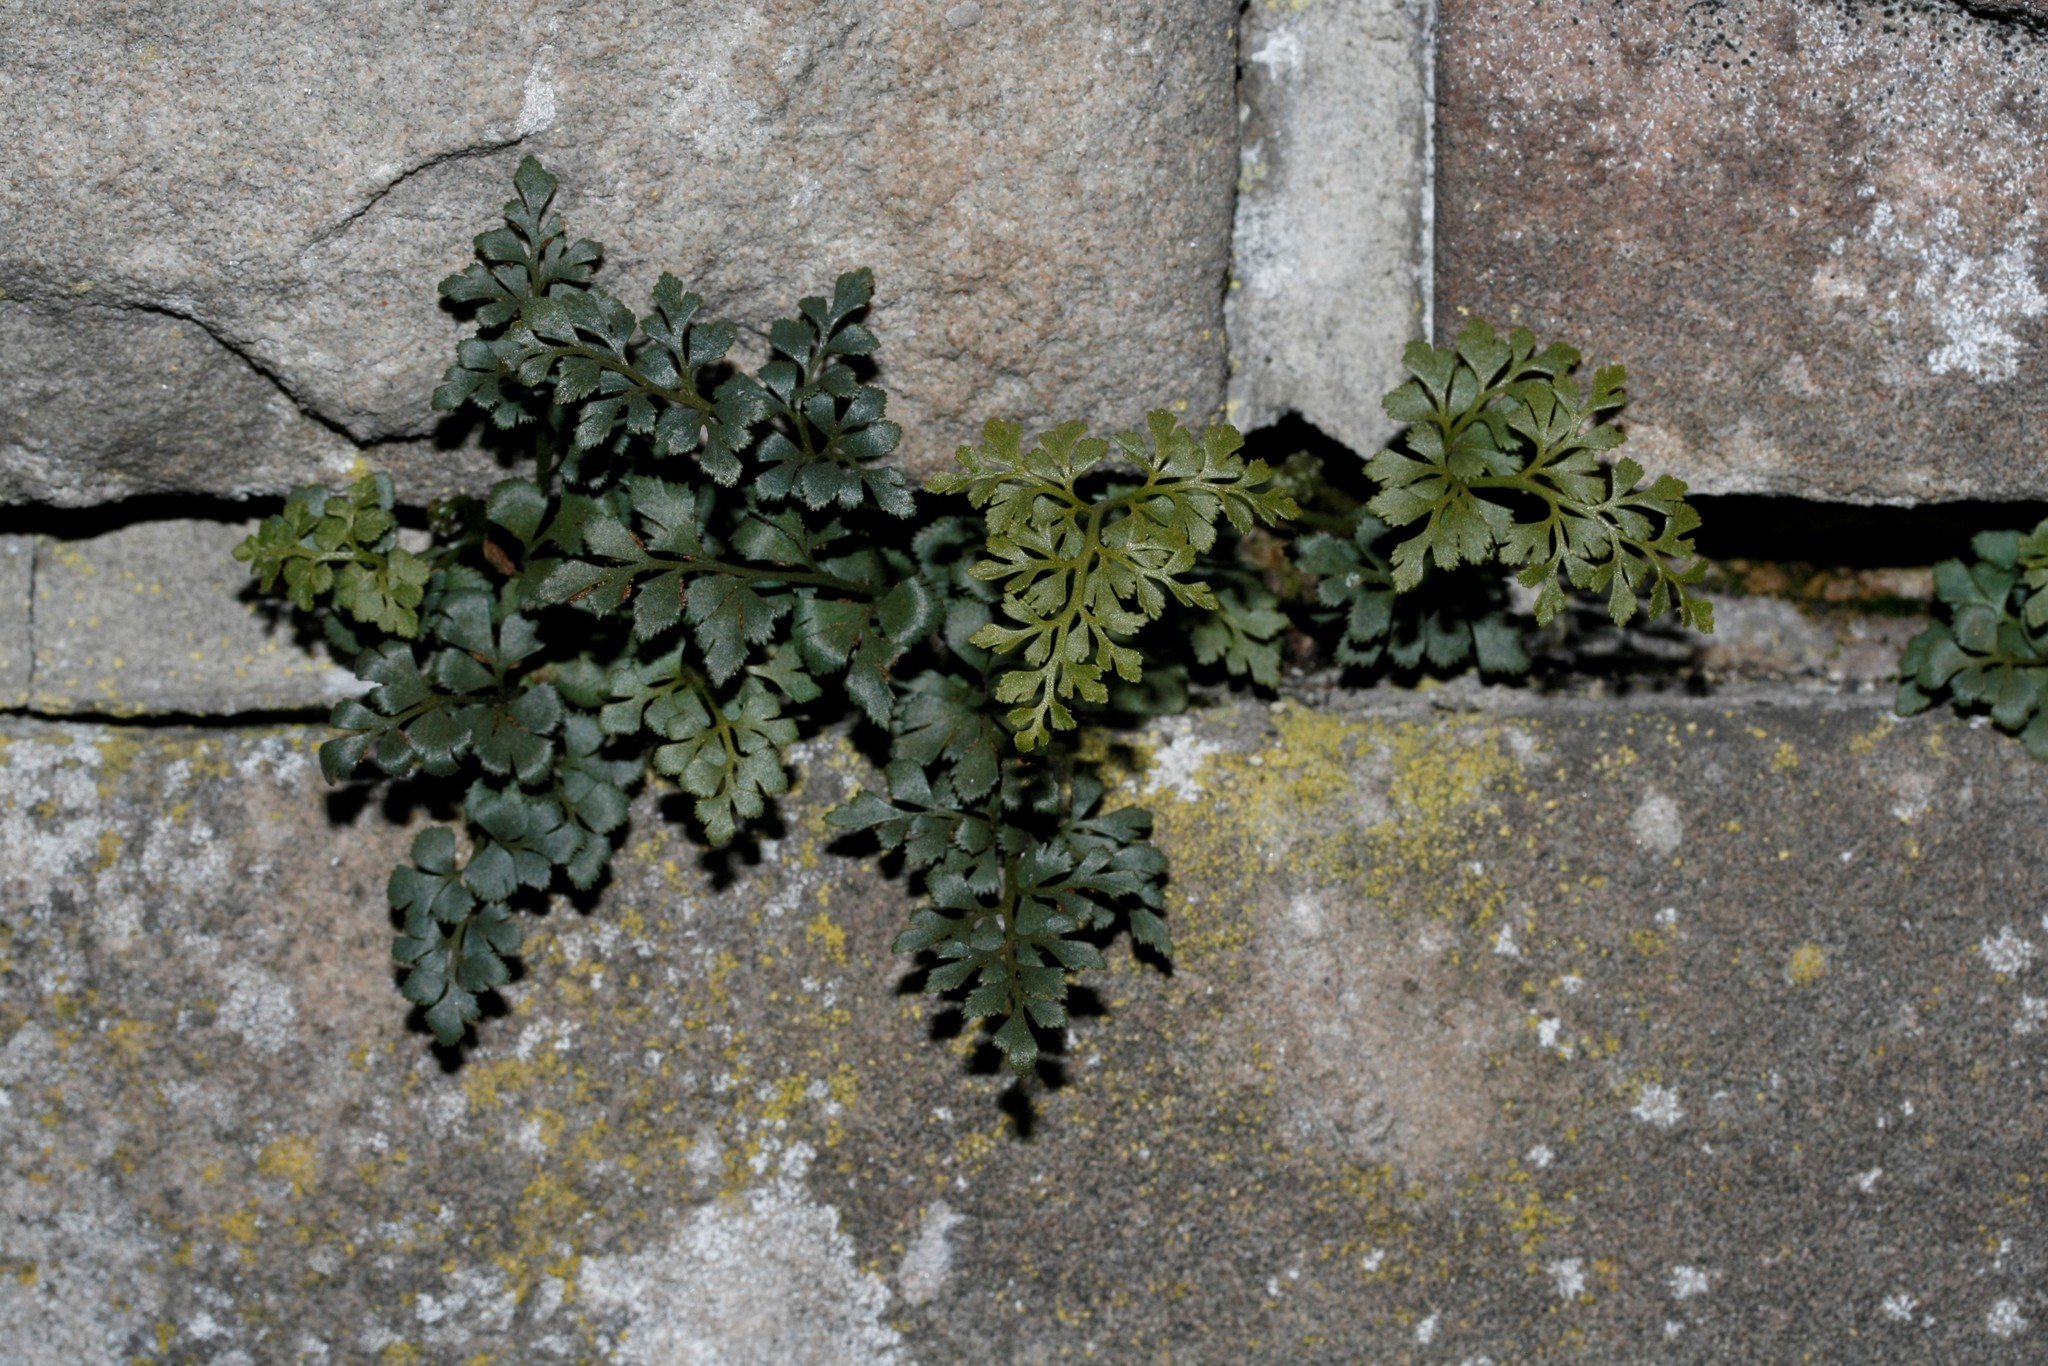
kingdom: Plantae
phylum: Tracheophyta
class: Polypodiopsida
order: Polypodiales
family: Aspleniaceae
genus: Asplenium
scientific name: Asplenium ruta-muraria
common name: Wall-rue
